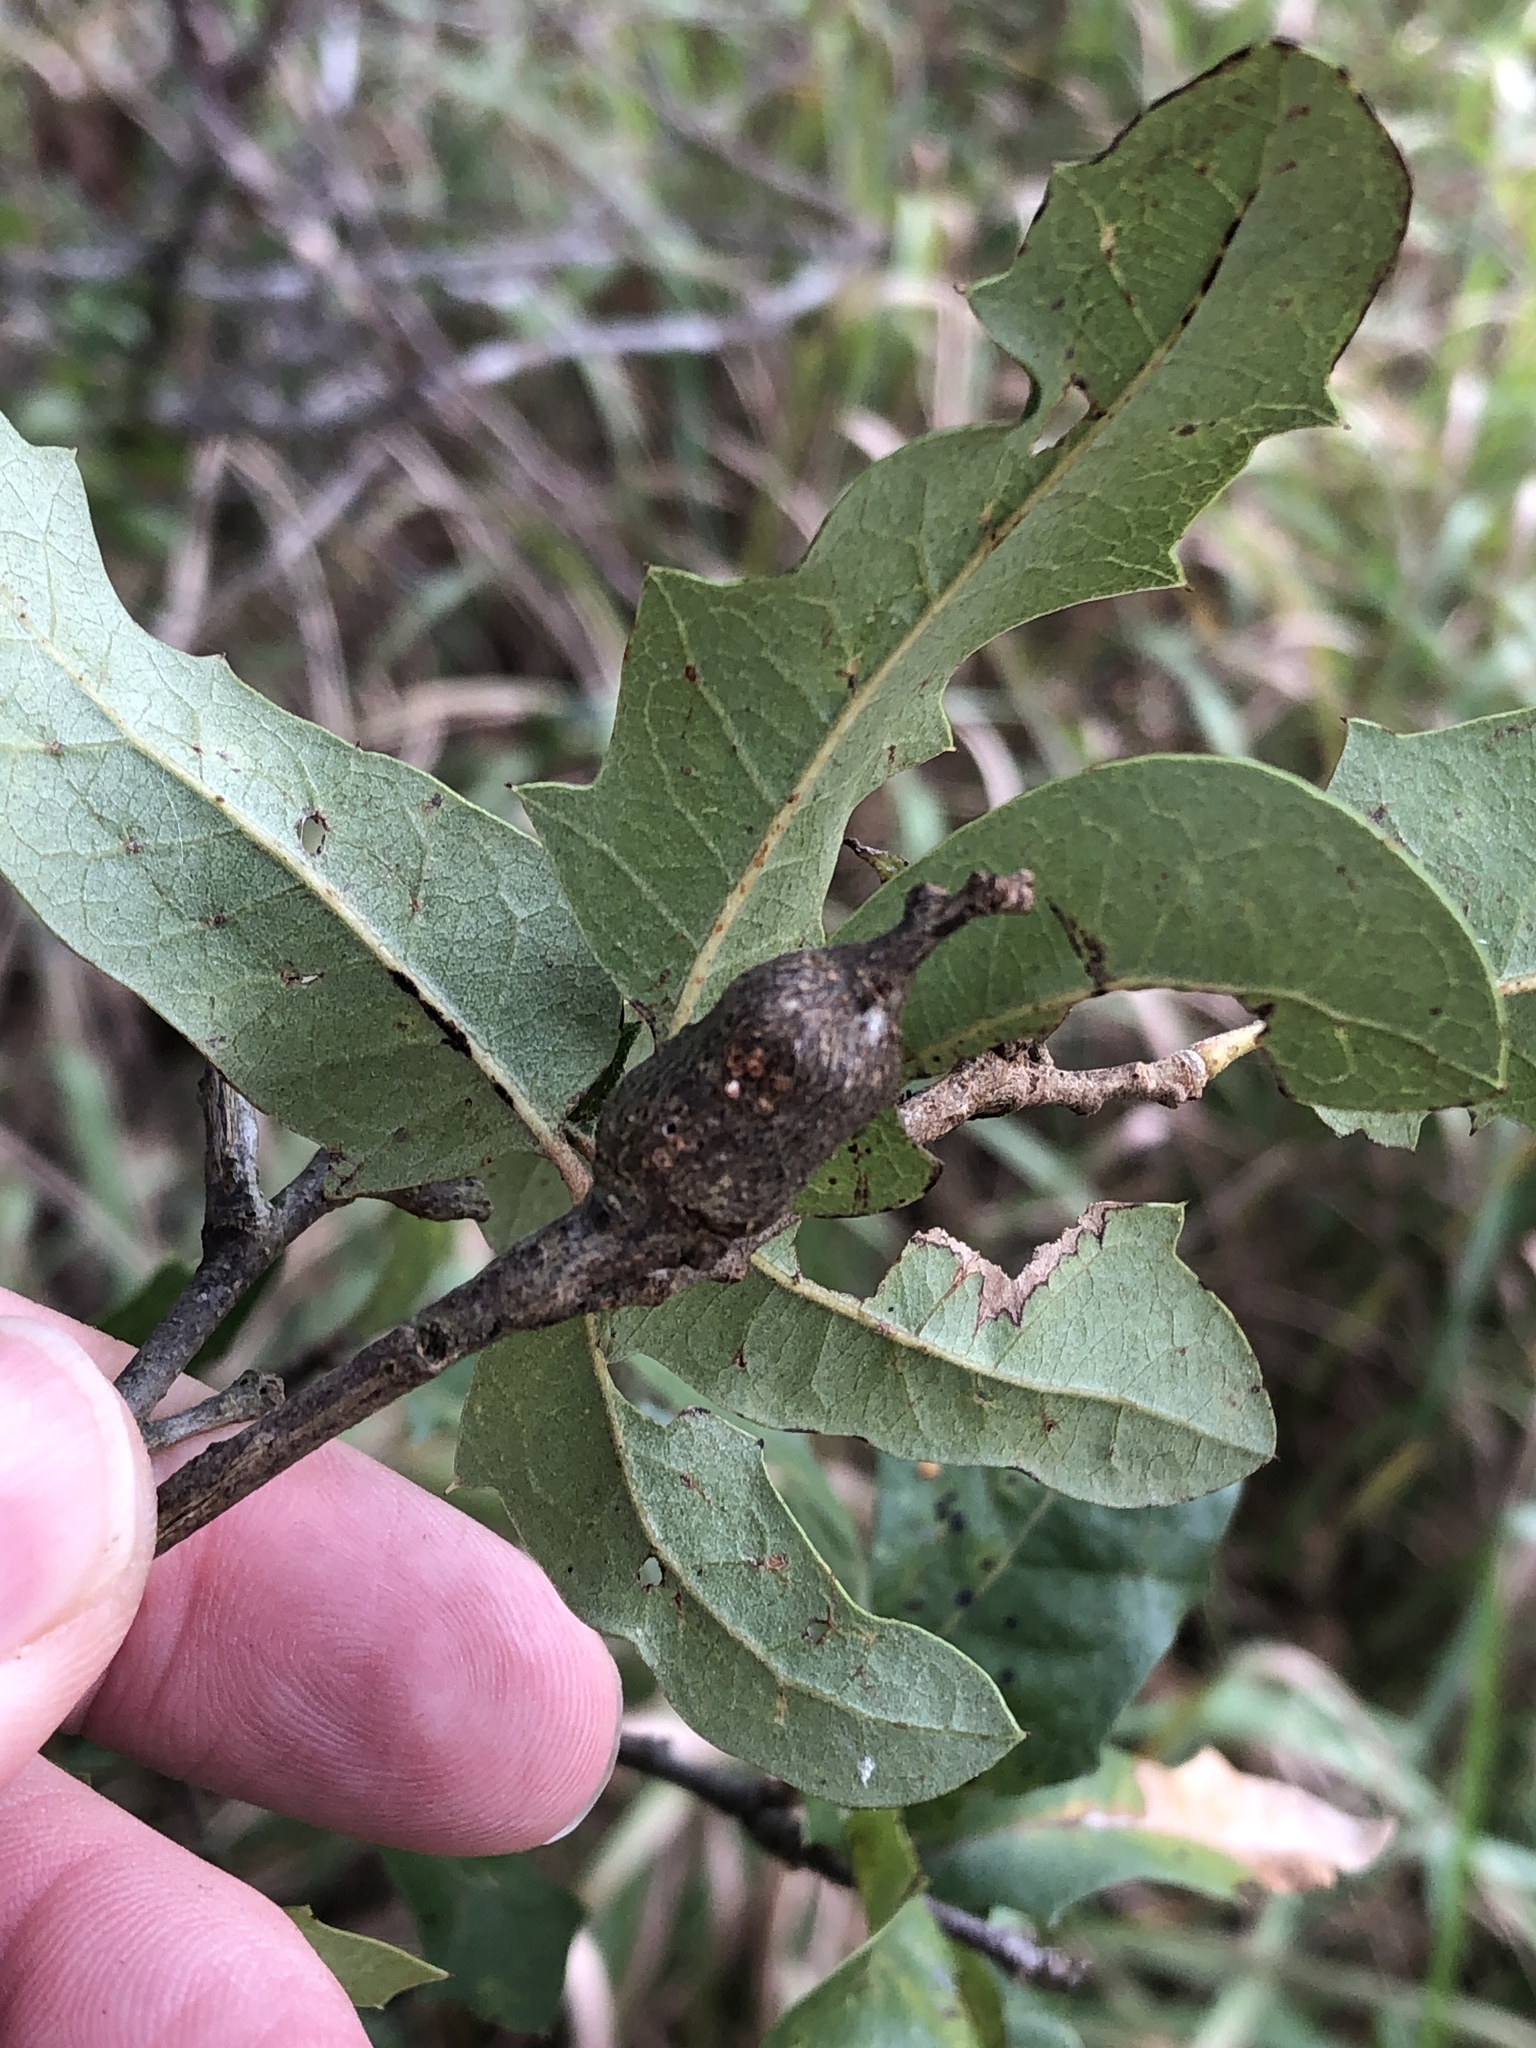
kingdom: Animalia
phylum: Arthropoda
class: Insecta
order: Hymenoptera
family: Cynipidae
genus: Callirhytis
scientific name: Callirhytis
